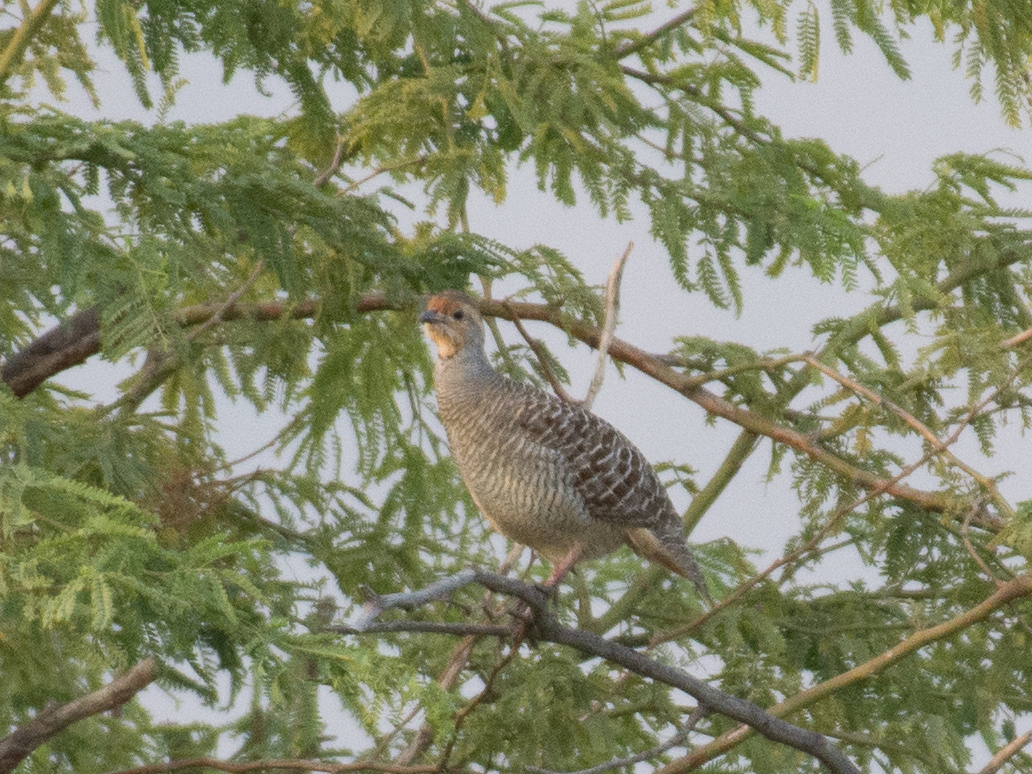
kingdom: Animalia
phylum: Chordata
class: Aves
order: Galliformes
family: Phasianidae
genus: Ortygornis
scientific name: Ortygornis pondicerianus
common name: Grey francolin
